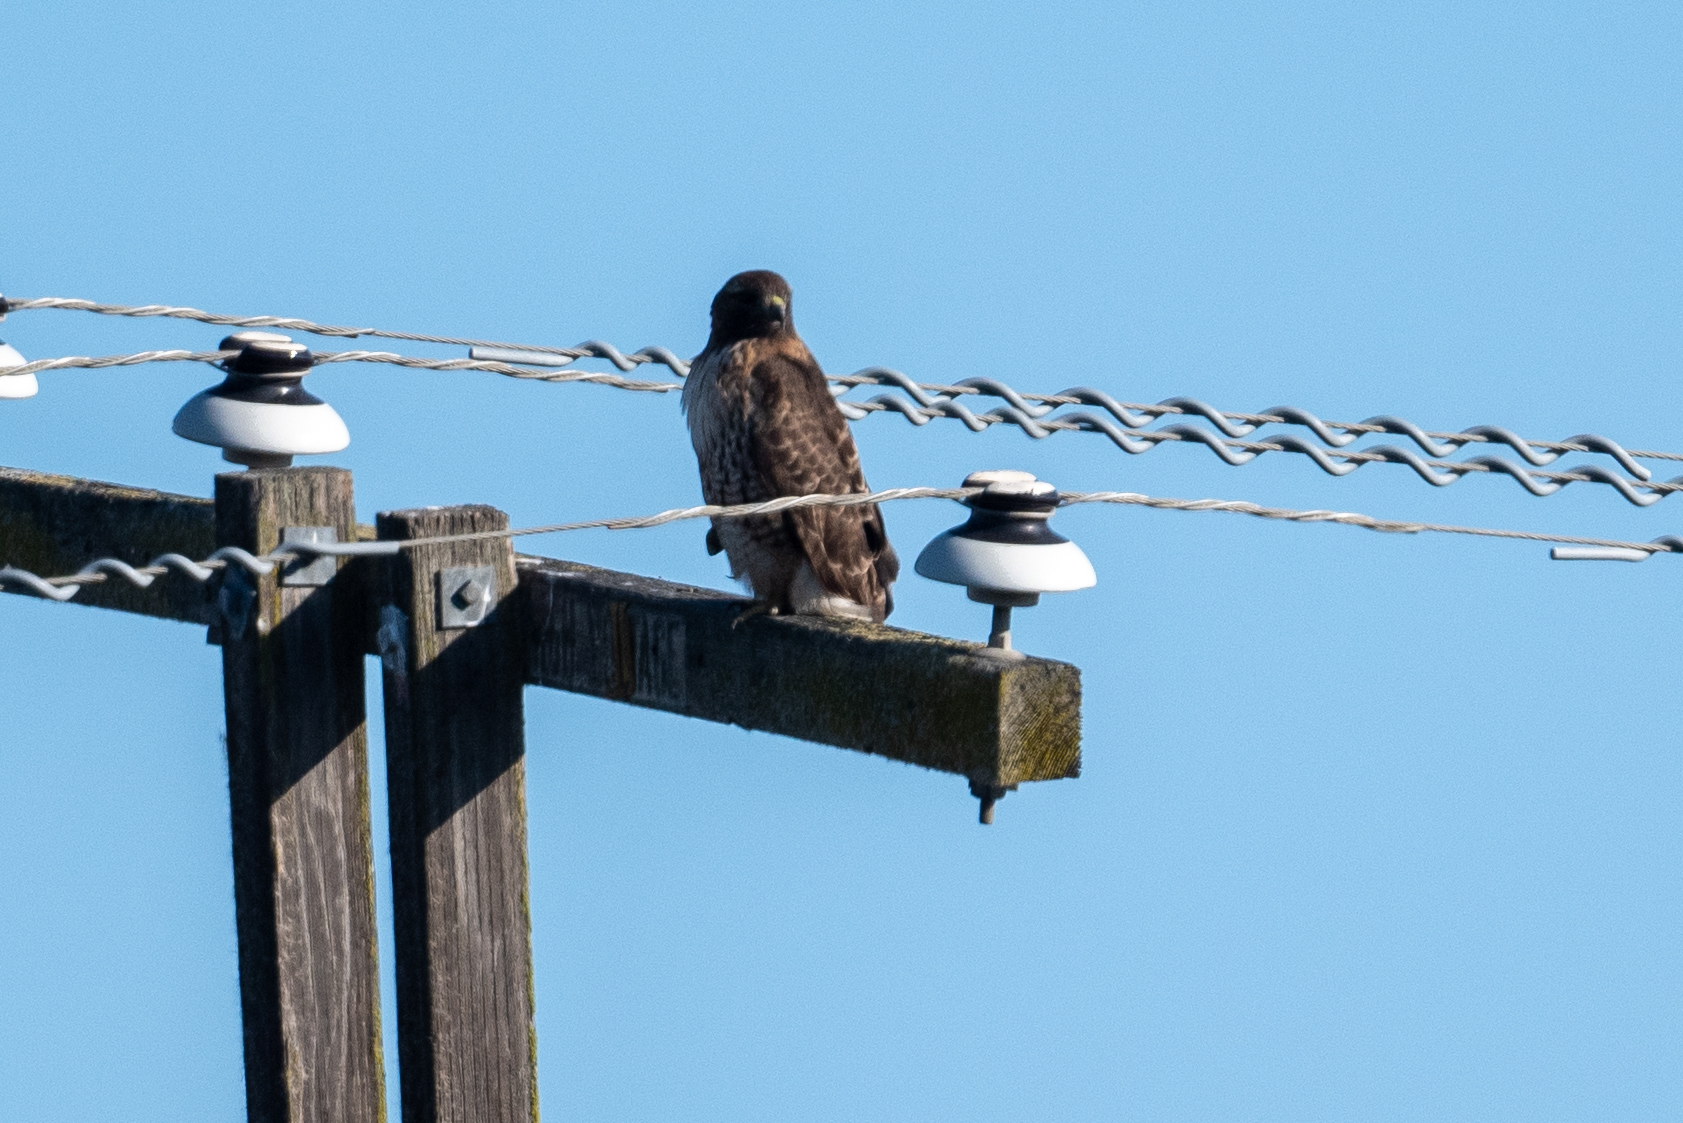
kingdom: Animalia
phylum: Chordata
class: Aves
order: Accipitriformes
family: Accipitridae
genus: Buteo
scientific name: Buteo jamaicensis
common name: Red-tailed hawk
